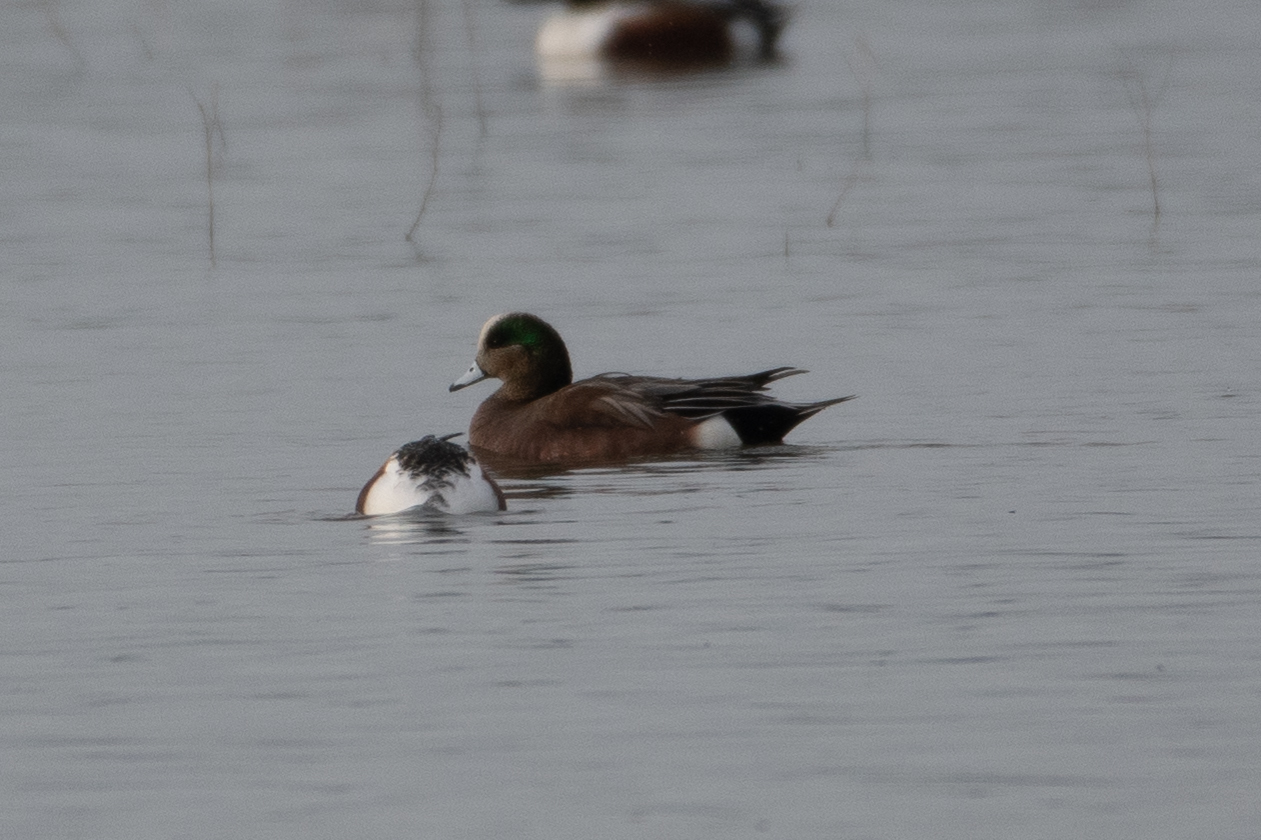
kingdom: Animalia
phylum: Chordata
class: Aves
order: Anseriformes
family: Anatidae
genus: Mareca
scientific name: Mareca americana
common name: American wigeon
